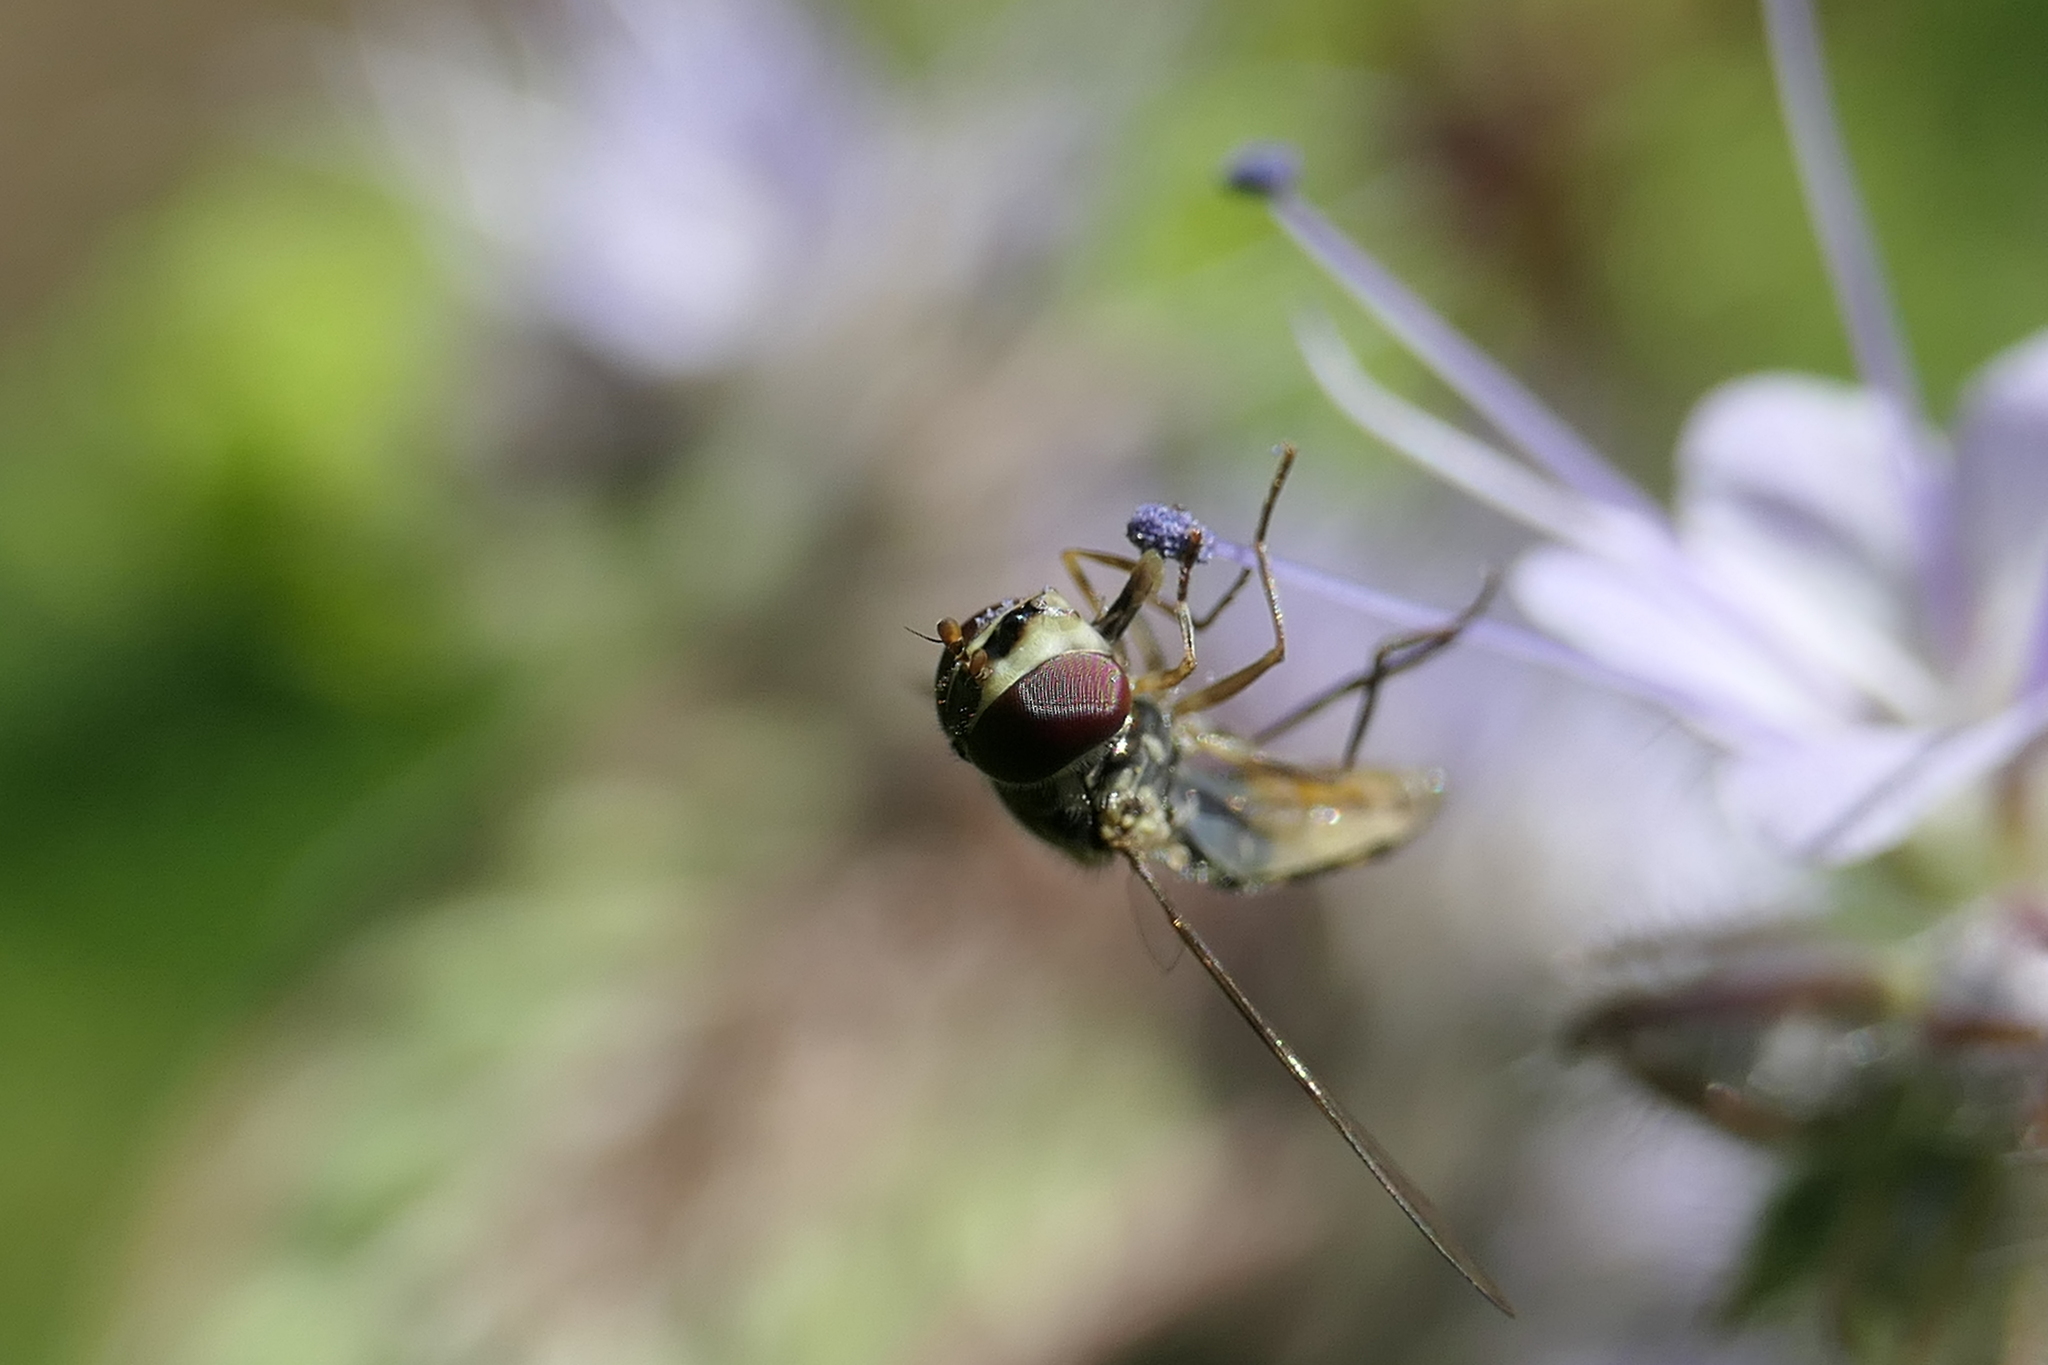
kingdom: Animalia
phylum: Arthropoda
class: Insecta
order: Diptera
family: Syrphidae
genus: Fazia
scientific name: Fazia micrura
